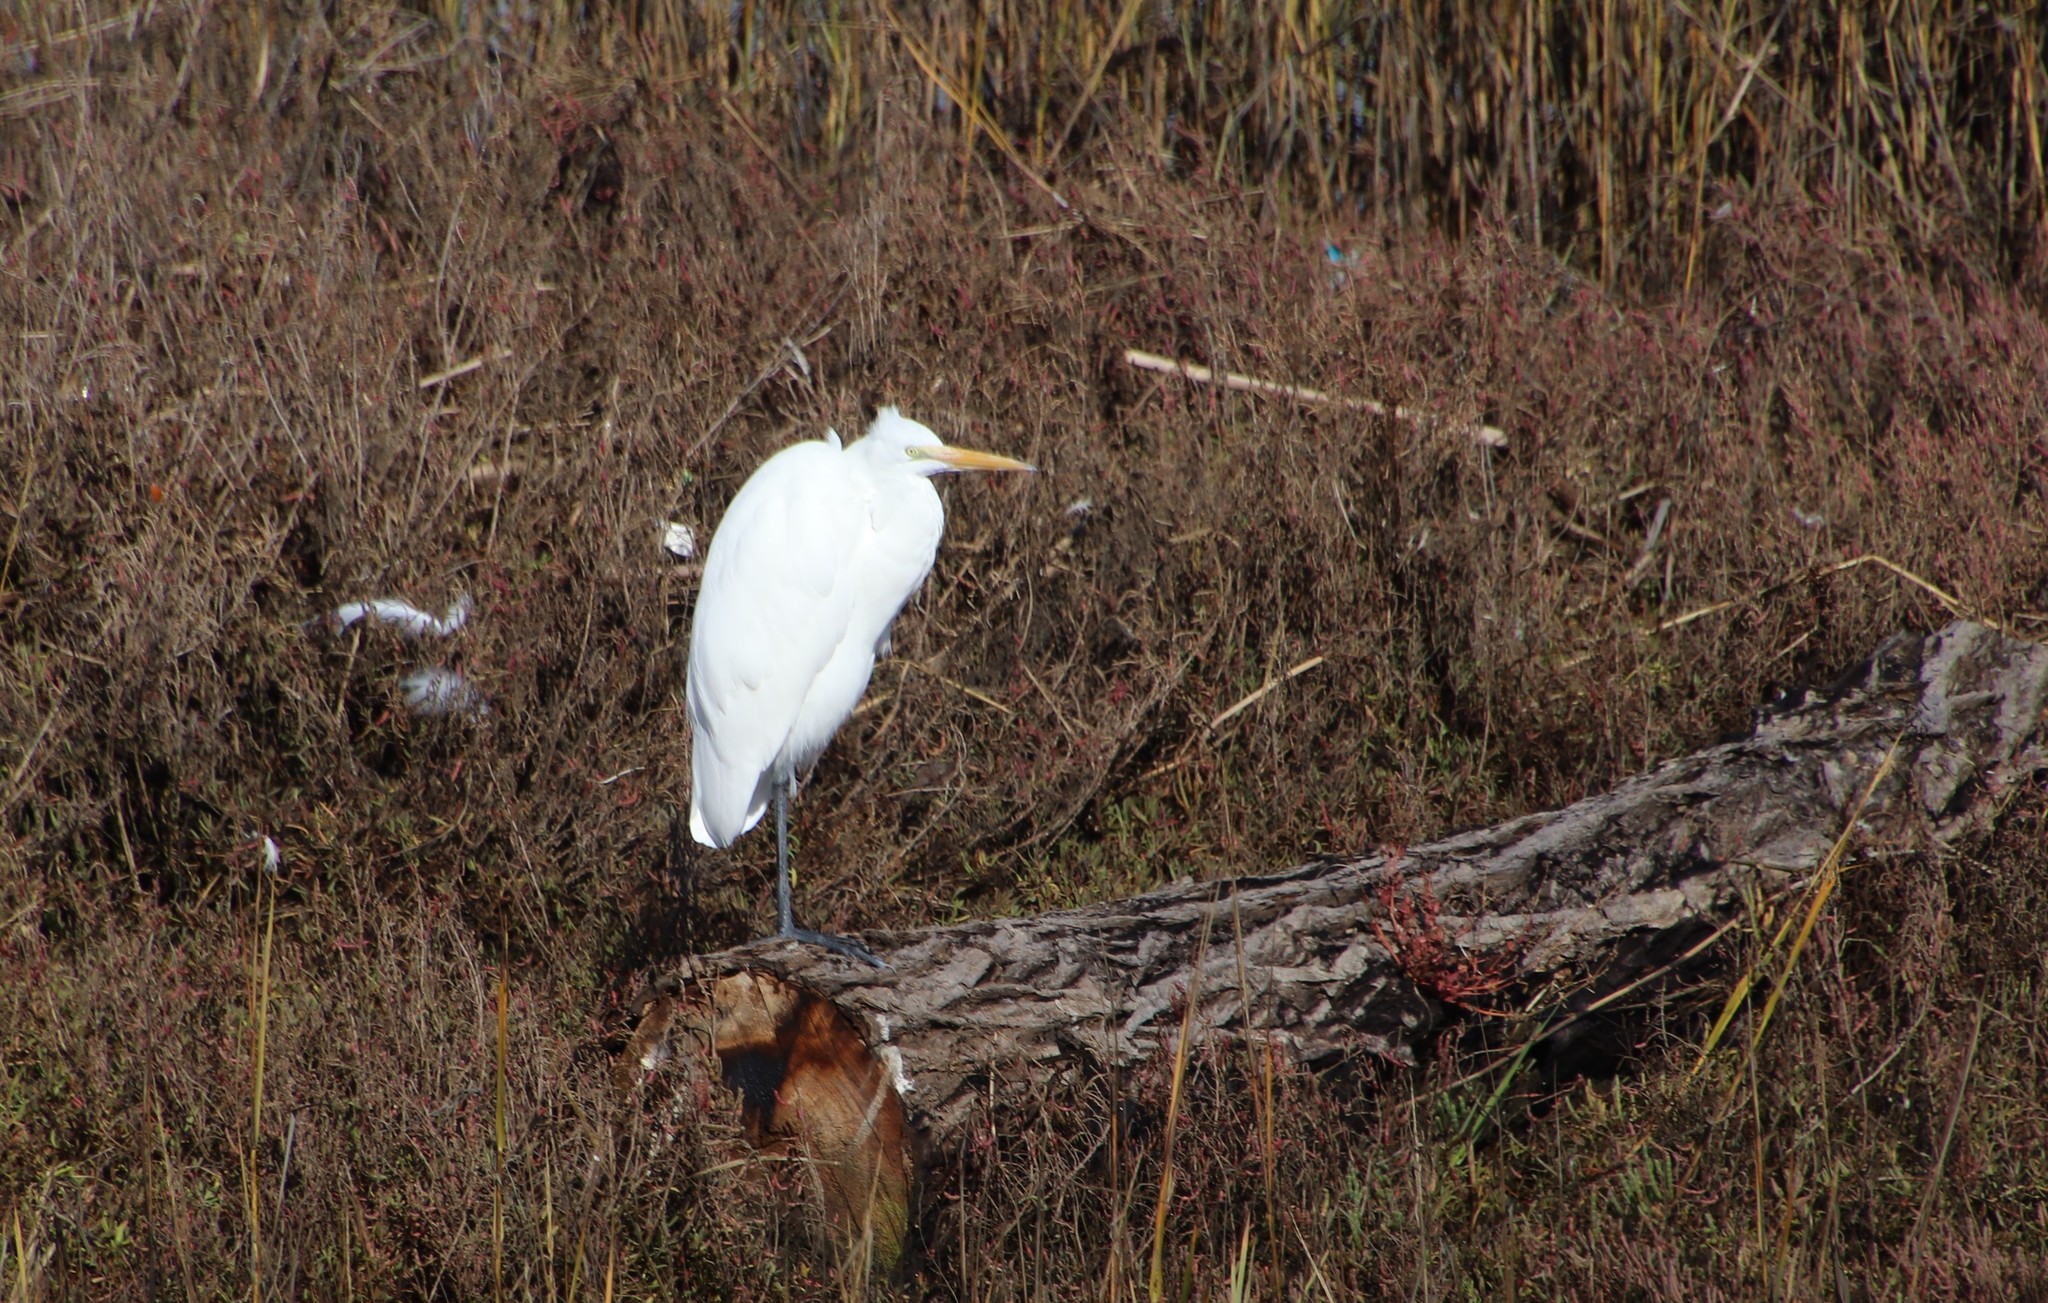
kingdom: Animalia
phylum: Chordata
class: Aves
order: Pelecaniformes
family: Ardeidae
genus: Ardea
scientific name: Ardea alba
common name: Great egret
